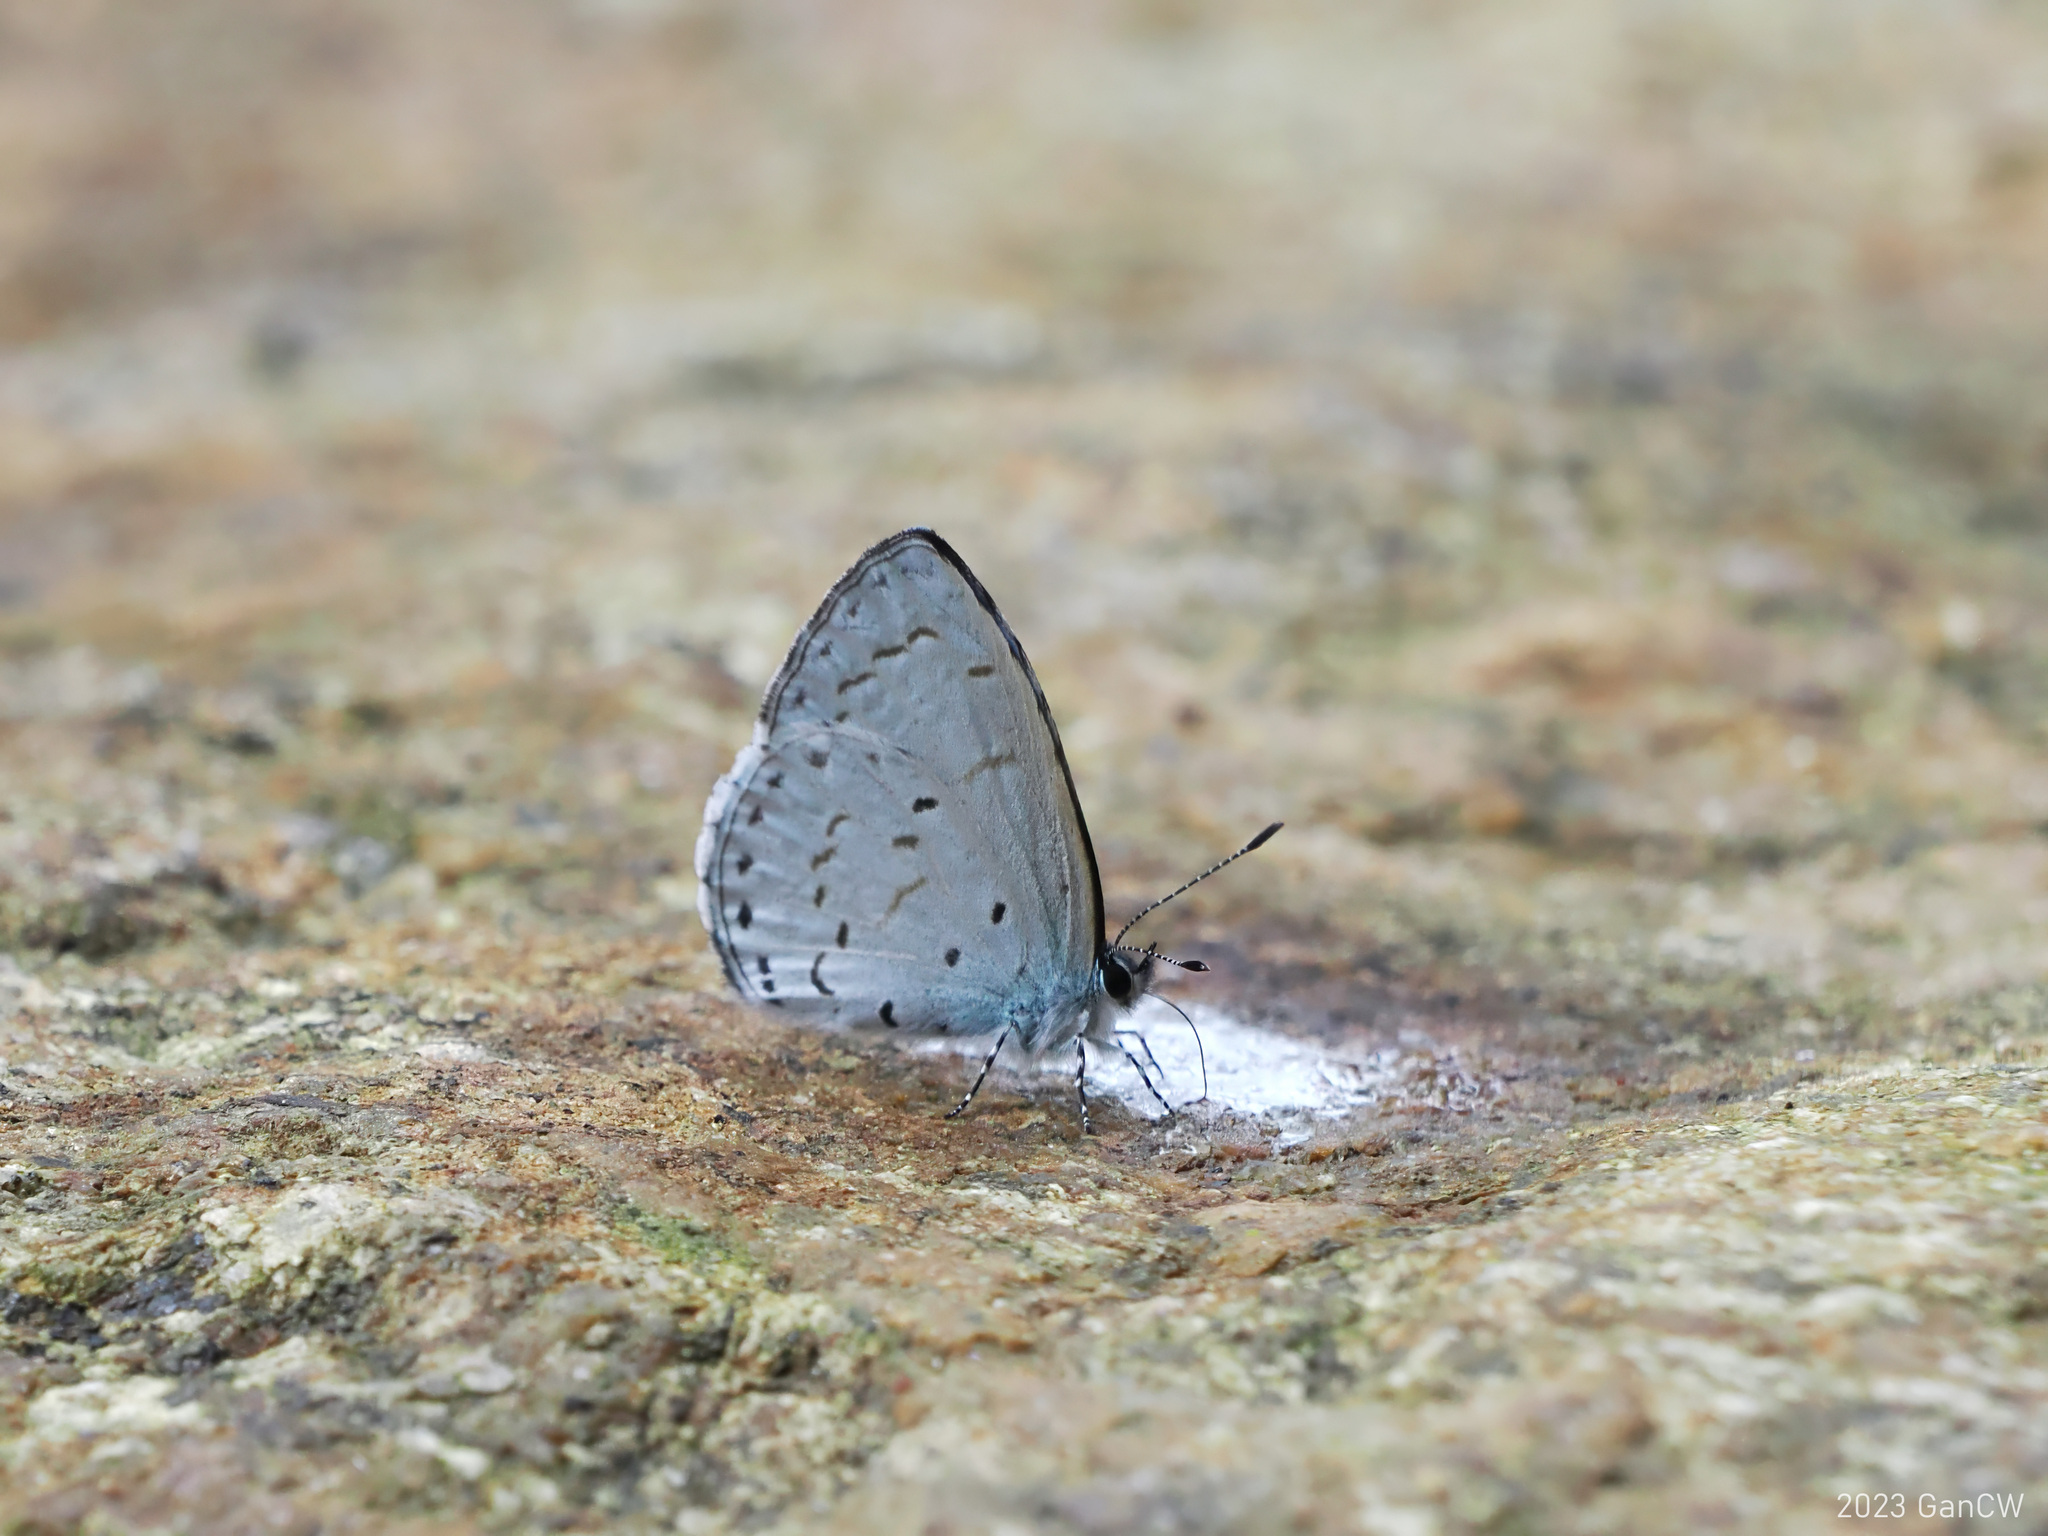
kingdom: Animalia
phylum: Arthropoda
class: Insecta
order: Lepidoptera
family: Lycaenidae
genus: Udara
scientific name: Udara camenae
